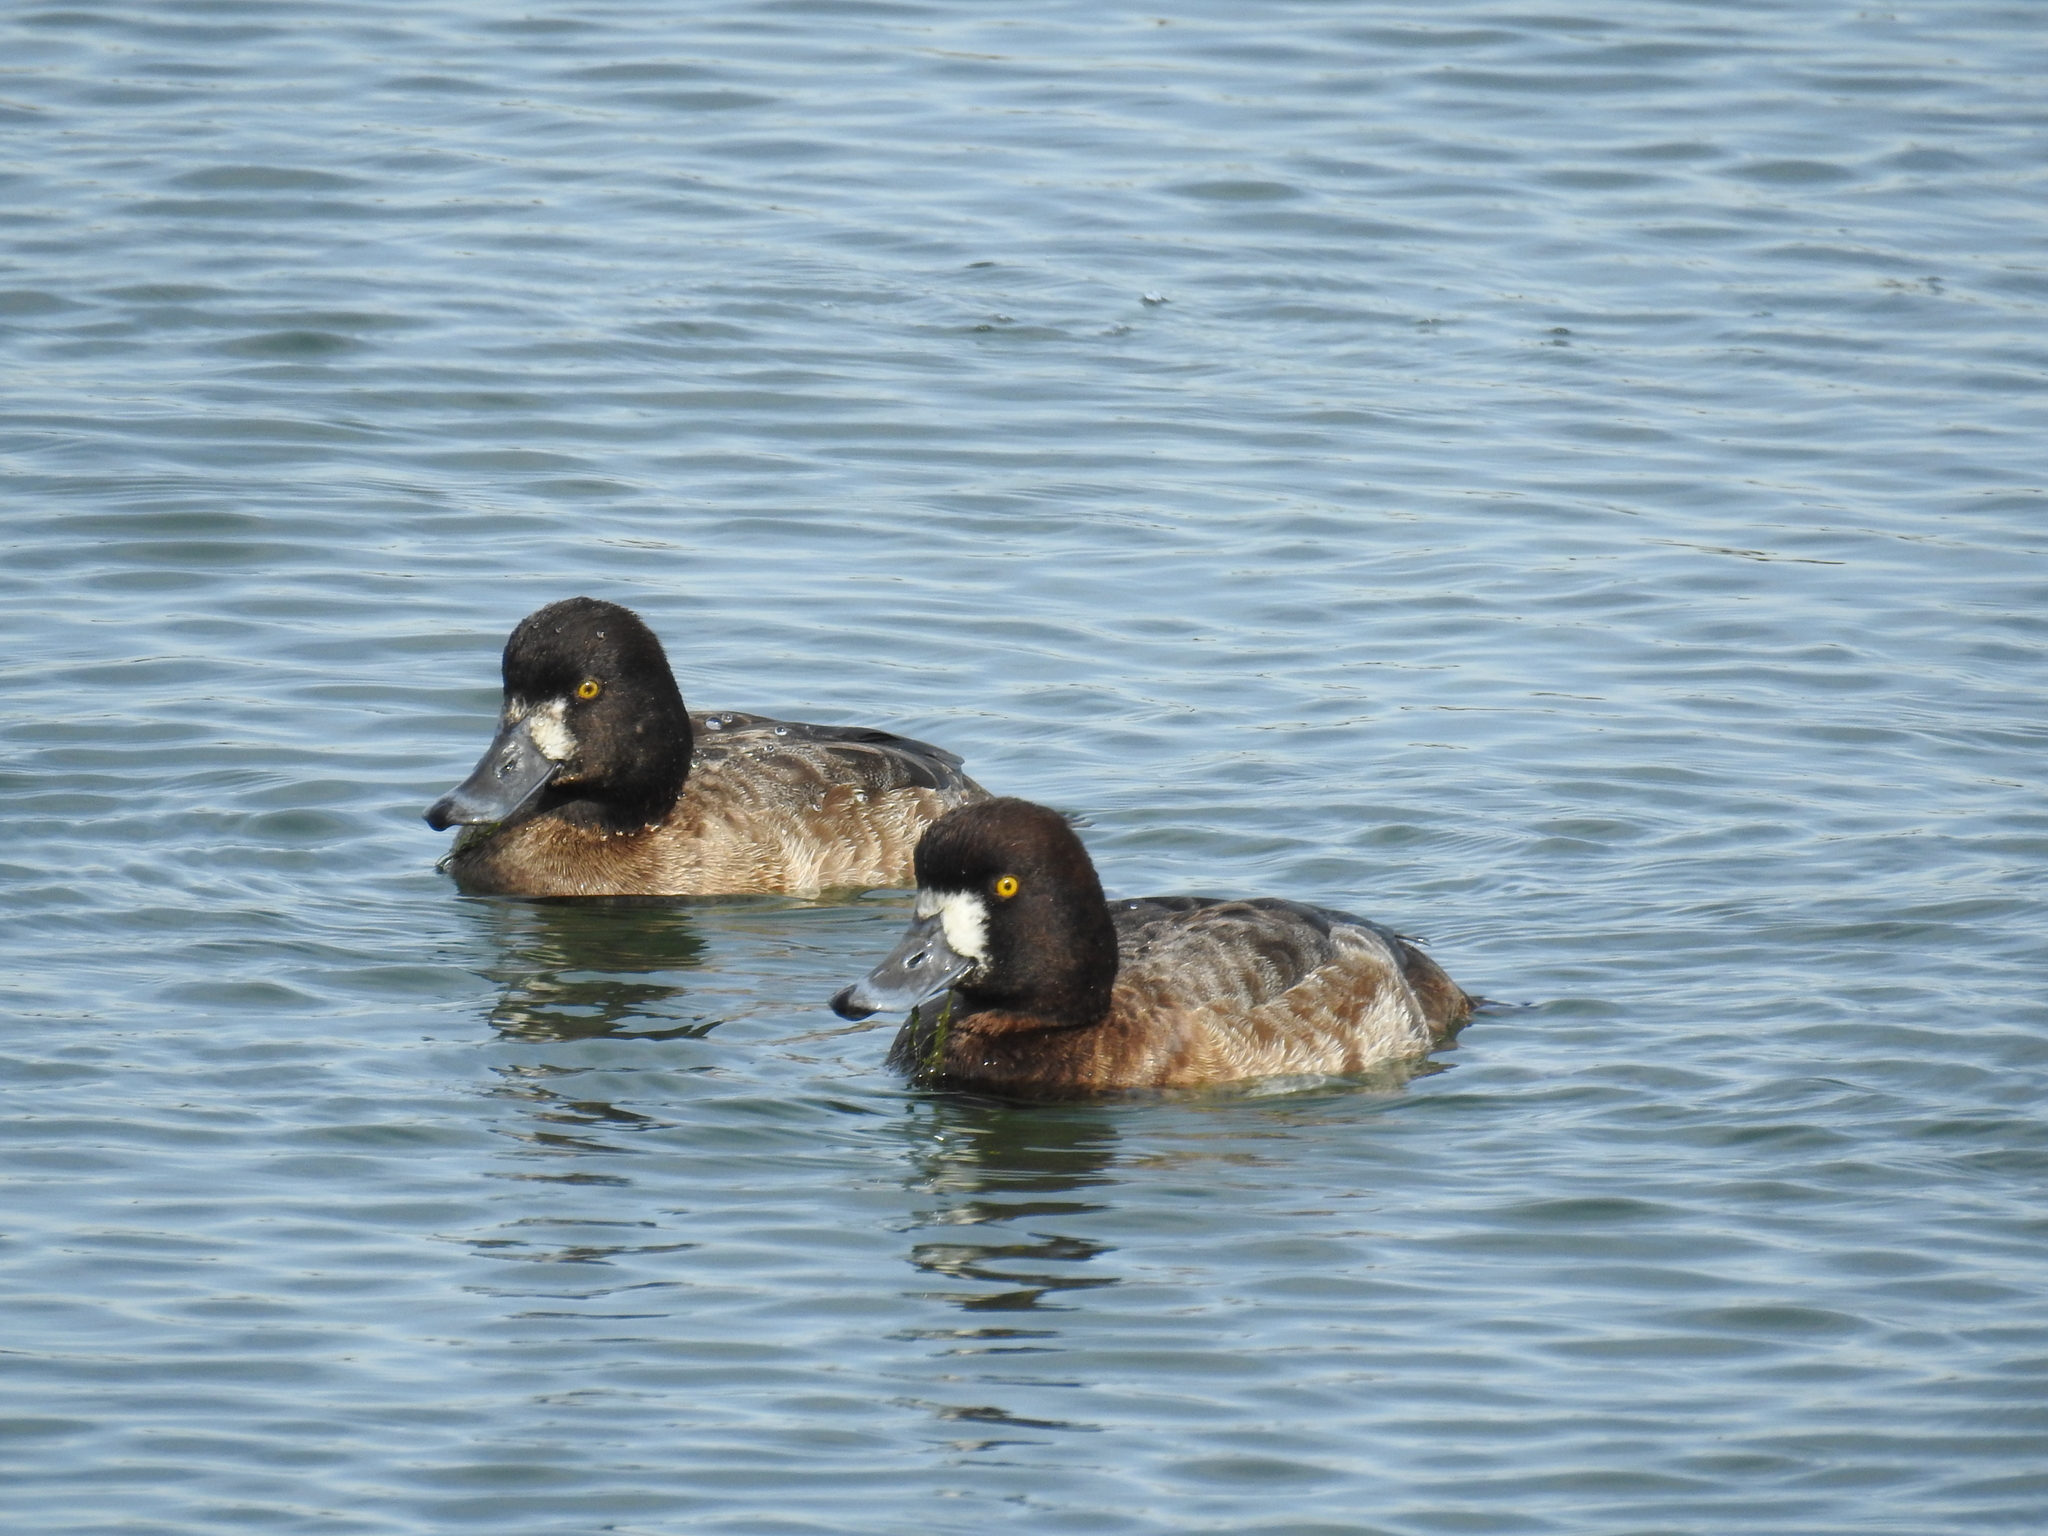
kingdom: Animalia
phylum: Chordata
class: Aves
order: Anseriformes
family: Anatidae
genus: Aythya
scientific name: Aythya affinis
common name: Lesser scaup
